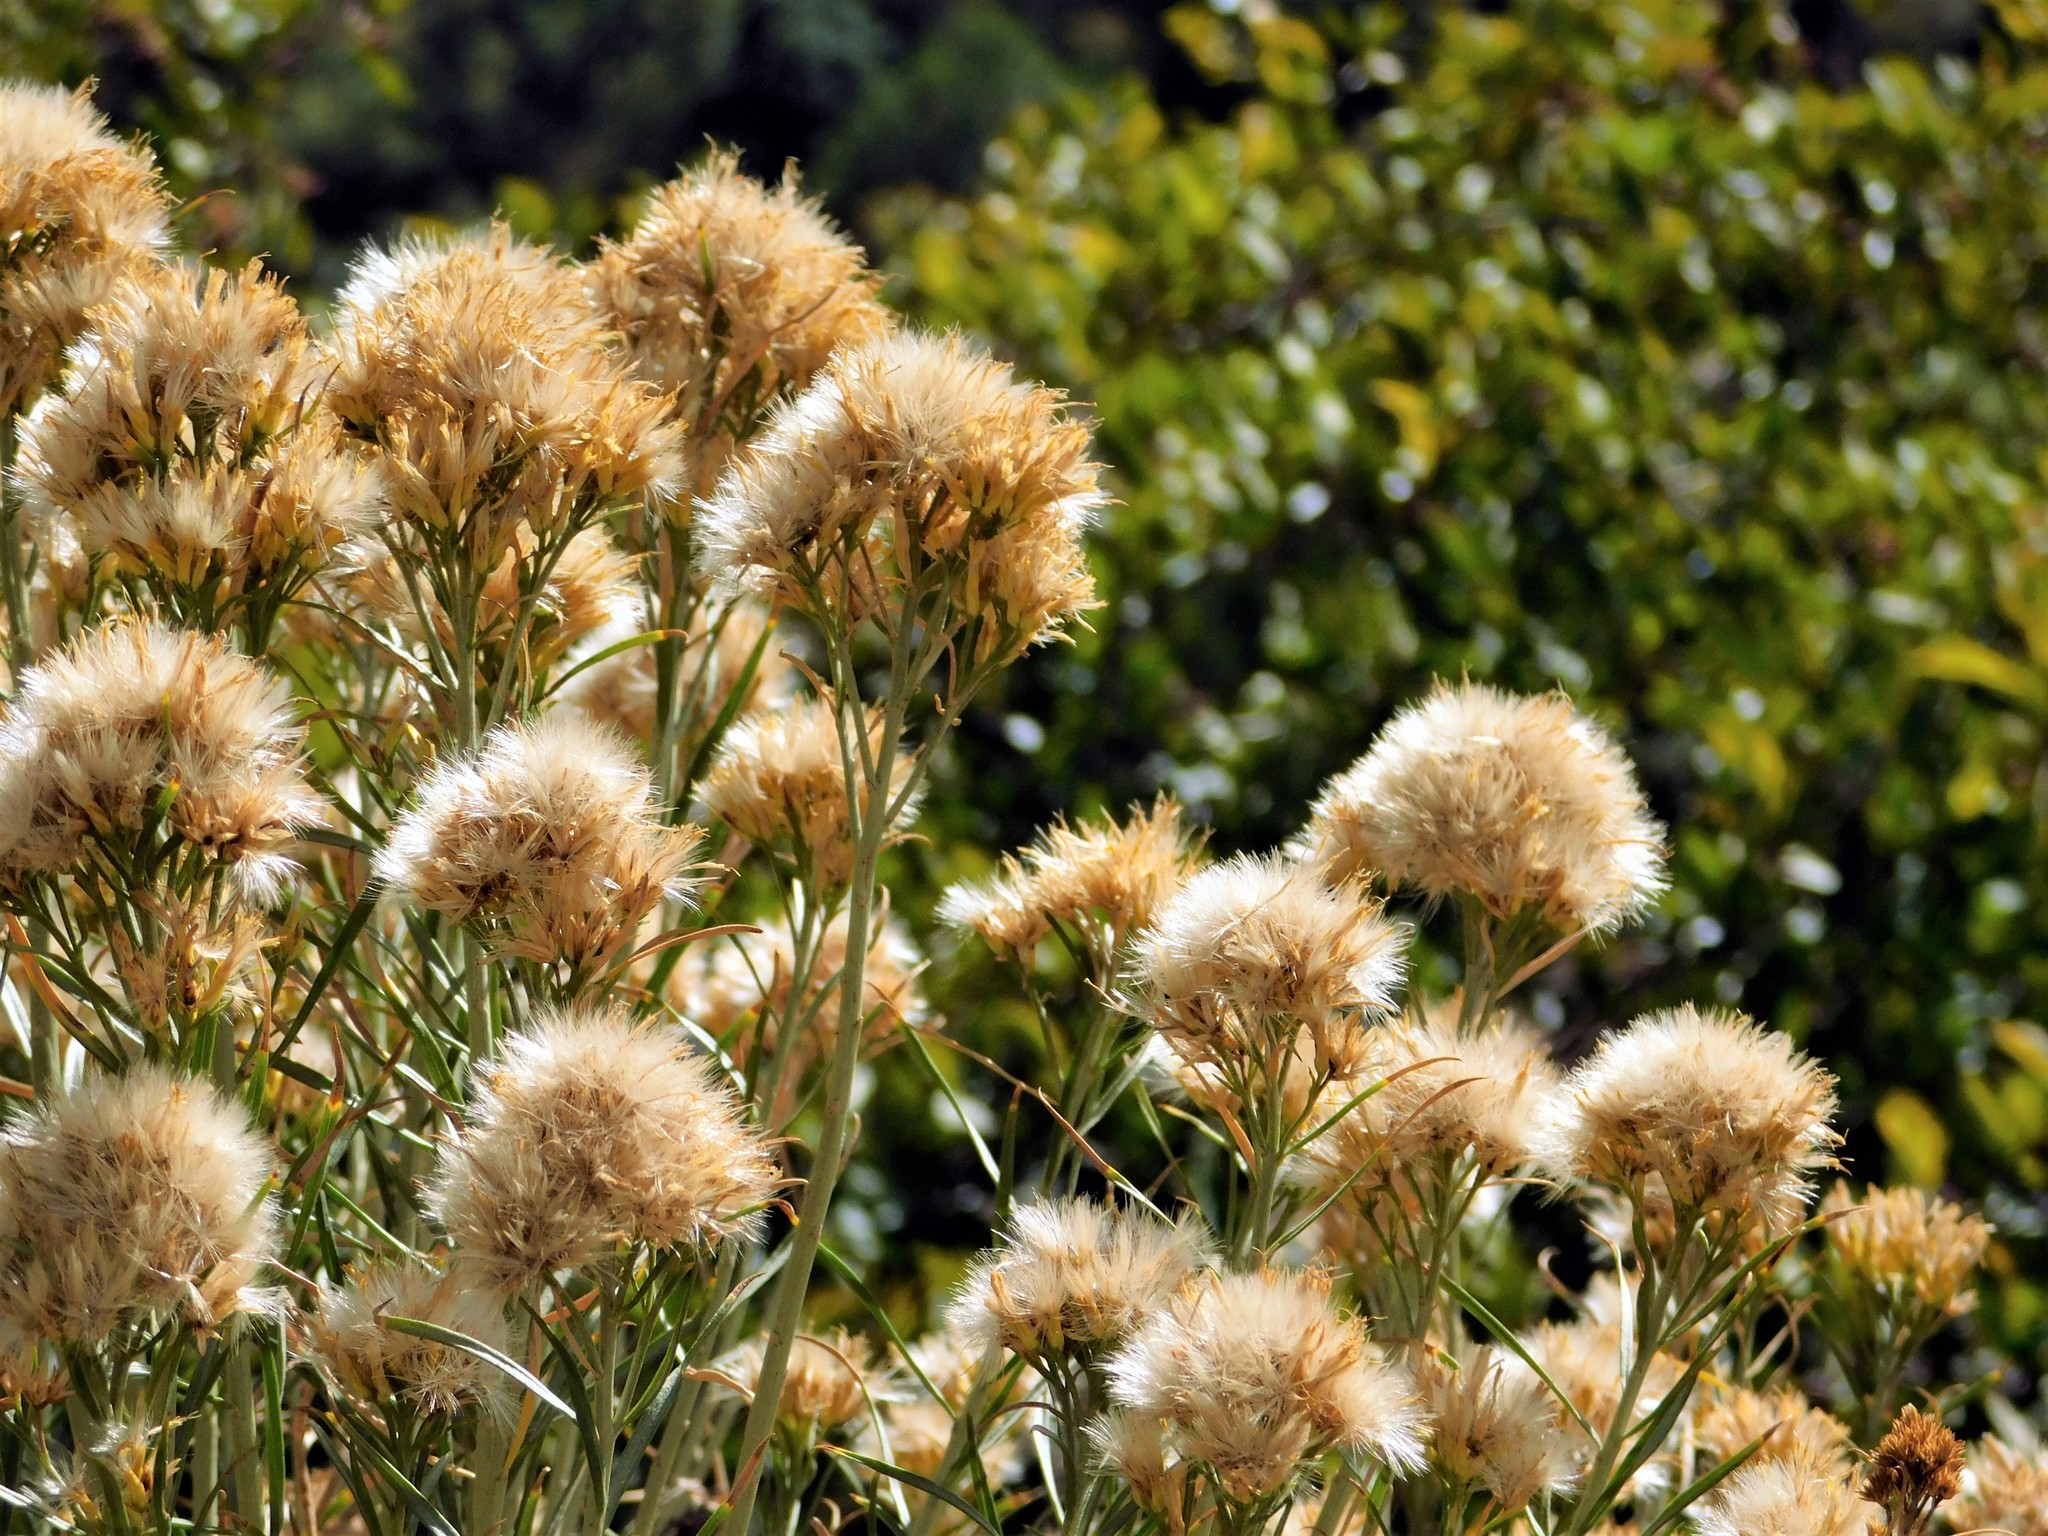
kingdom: Plantae
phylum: Tracheophyta
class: Magnoliopsida
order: Asterales
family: Asteraceae
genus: Ericameria
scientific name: Ericameria nauseosa
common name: Rubber rabbitbrush
